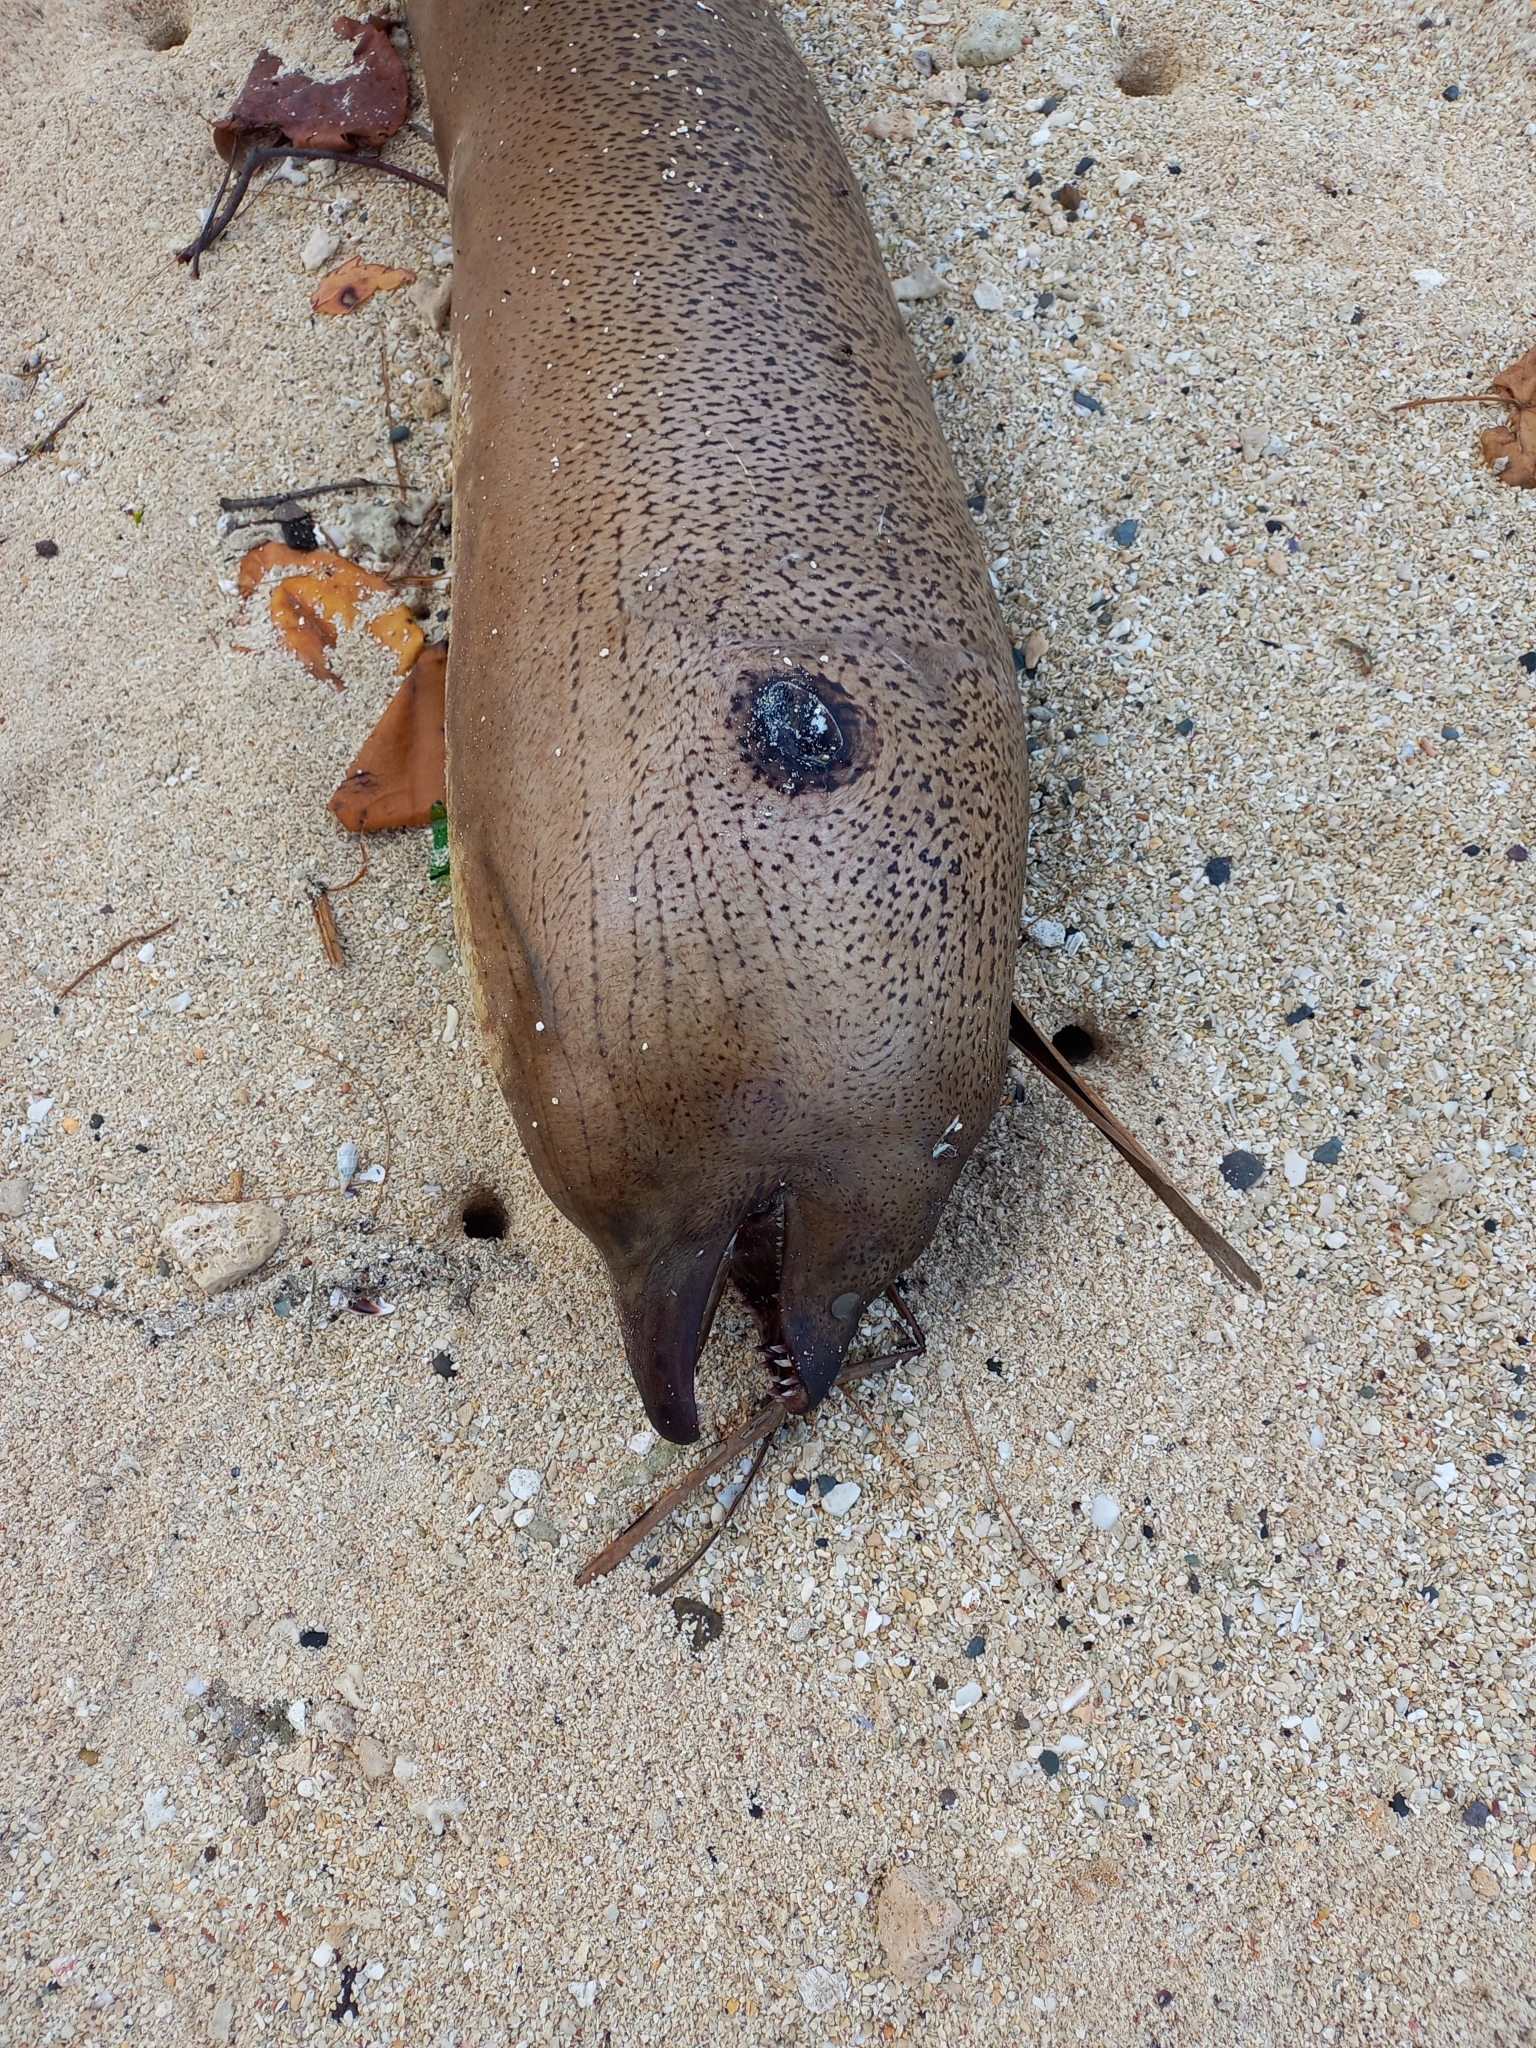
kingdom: Animalia
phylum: Chordata
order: Anguilliformes
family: Muraenidae
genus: Gymnothorax
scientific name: Gymnothorax javanicus
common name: Giant moray
